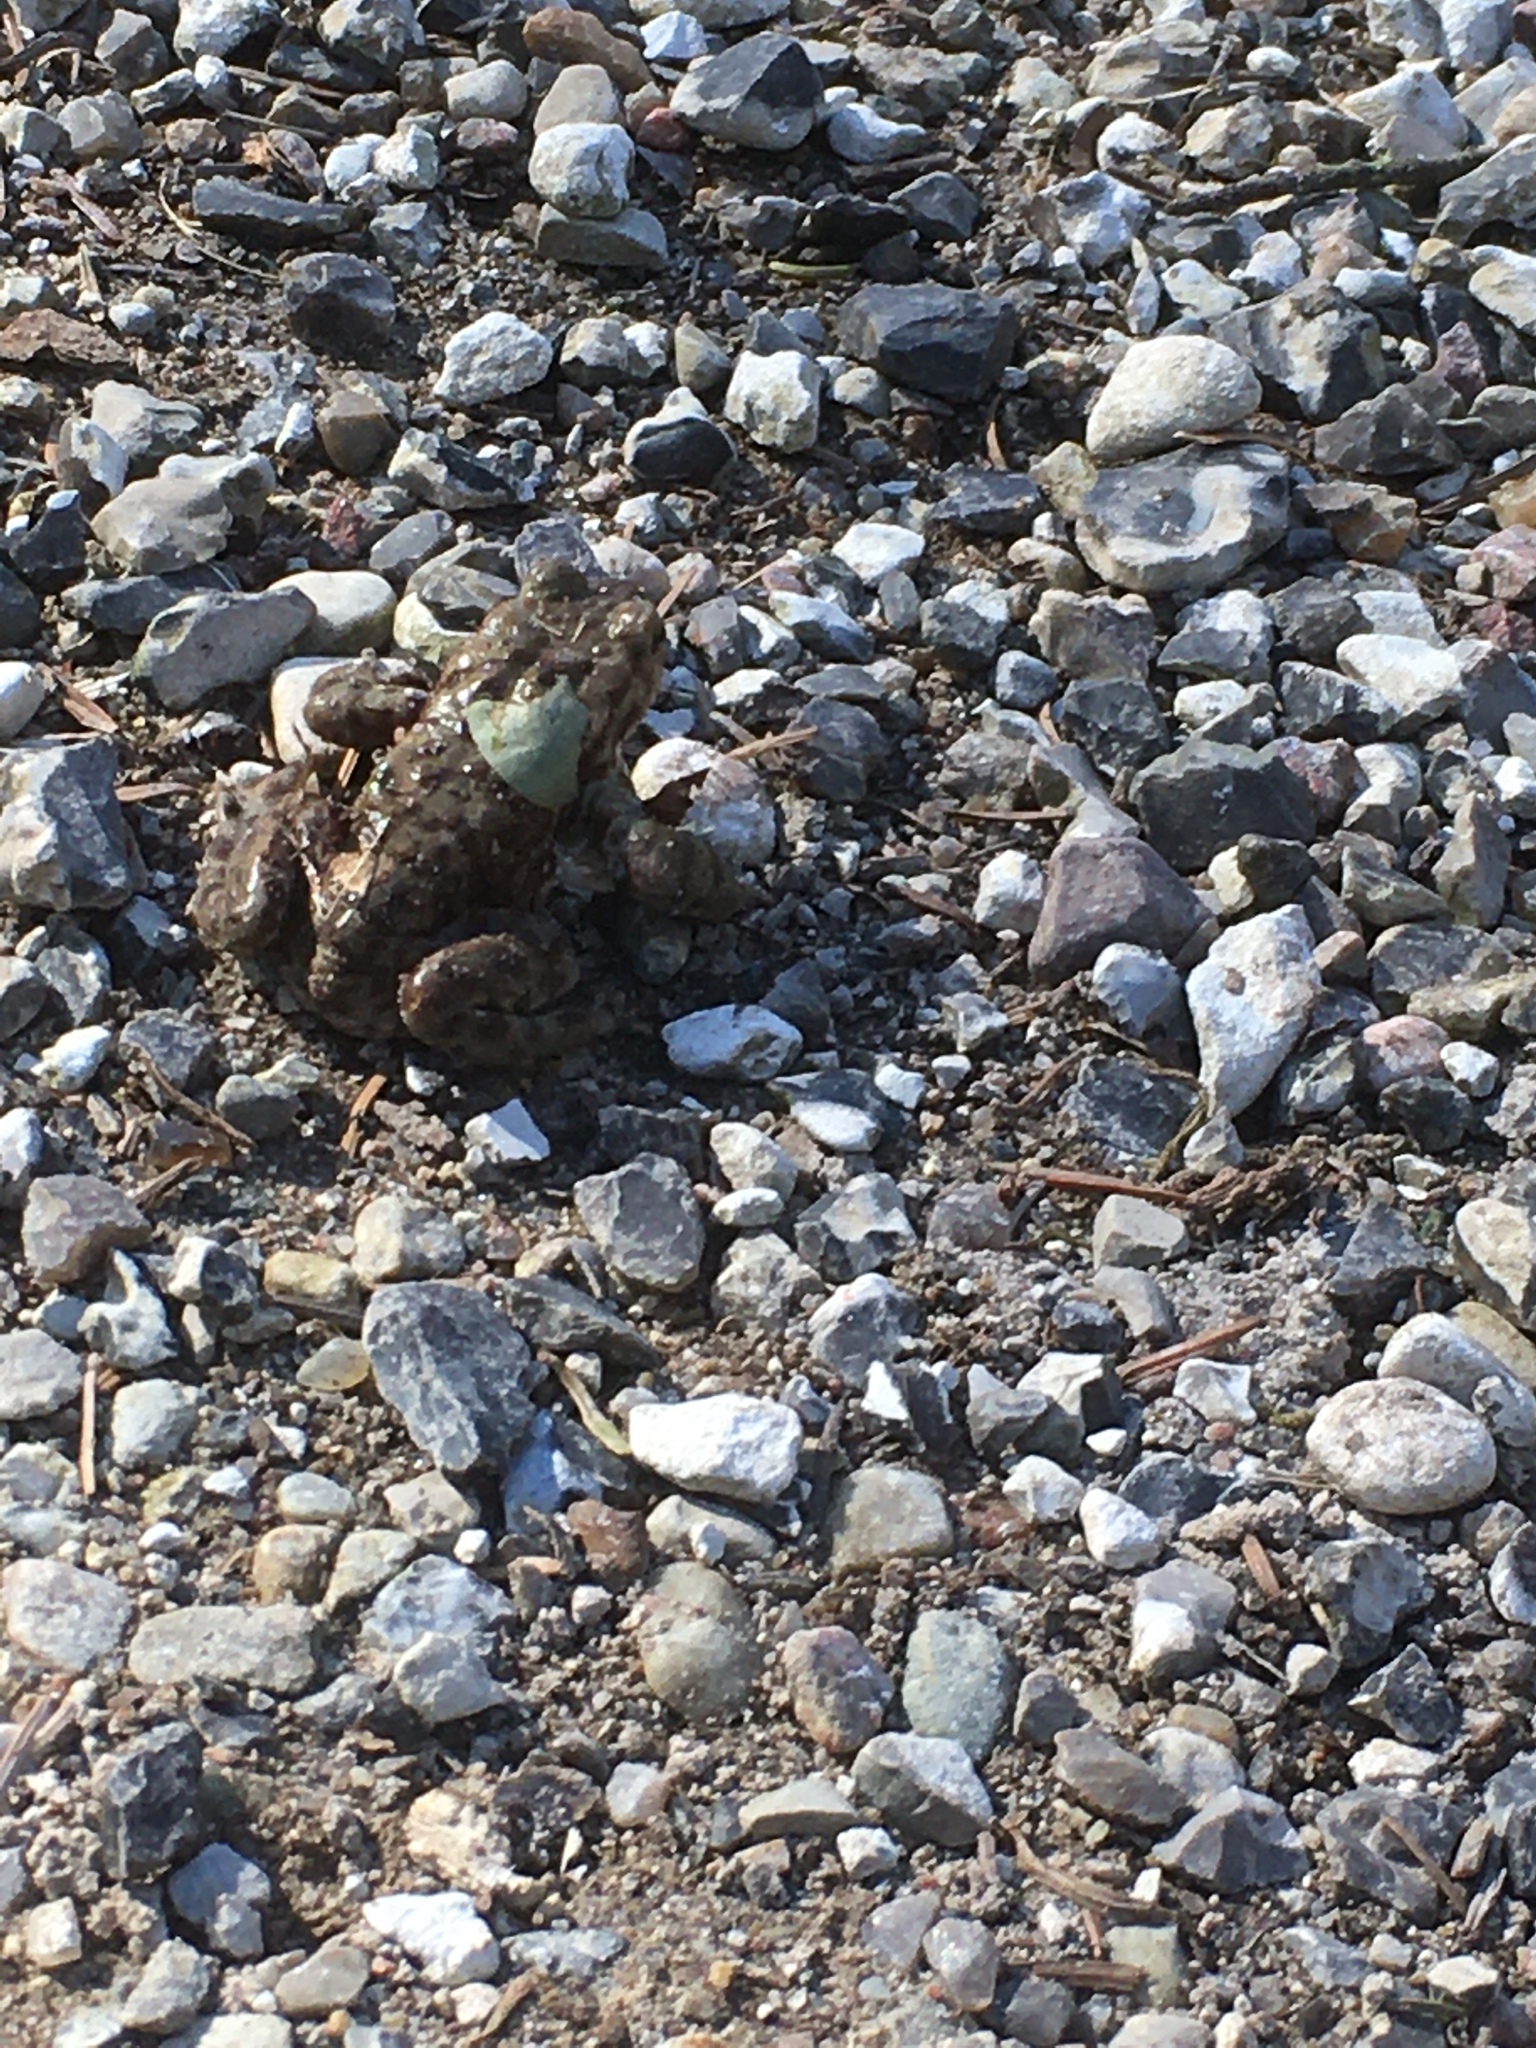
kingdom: Animalia
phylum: Chordata
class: Amphibia
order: Anura
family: Bufonidae
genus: Bufo
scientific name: Bufo bufo
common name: Common toad
